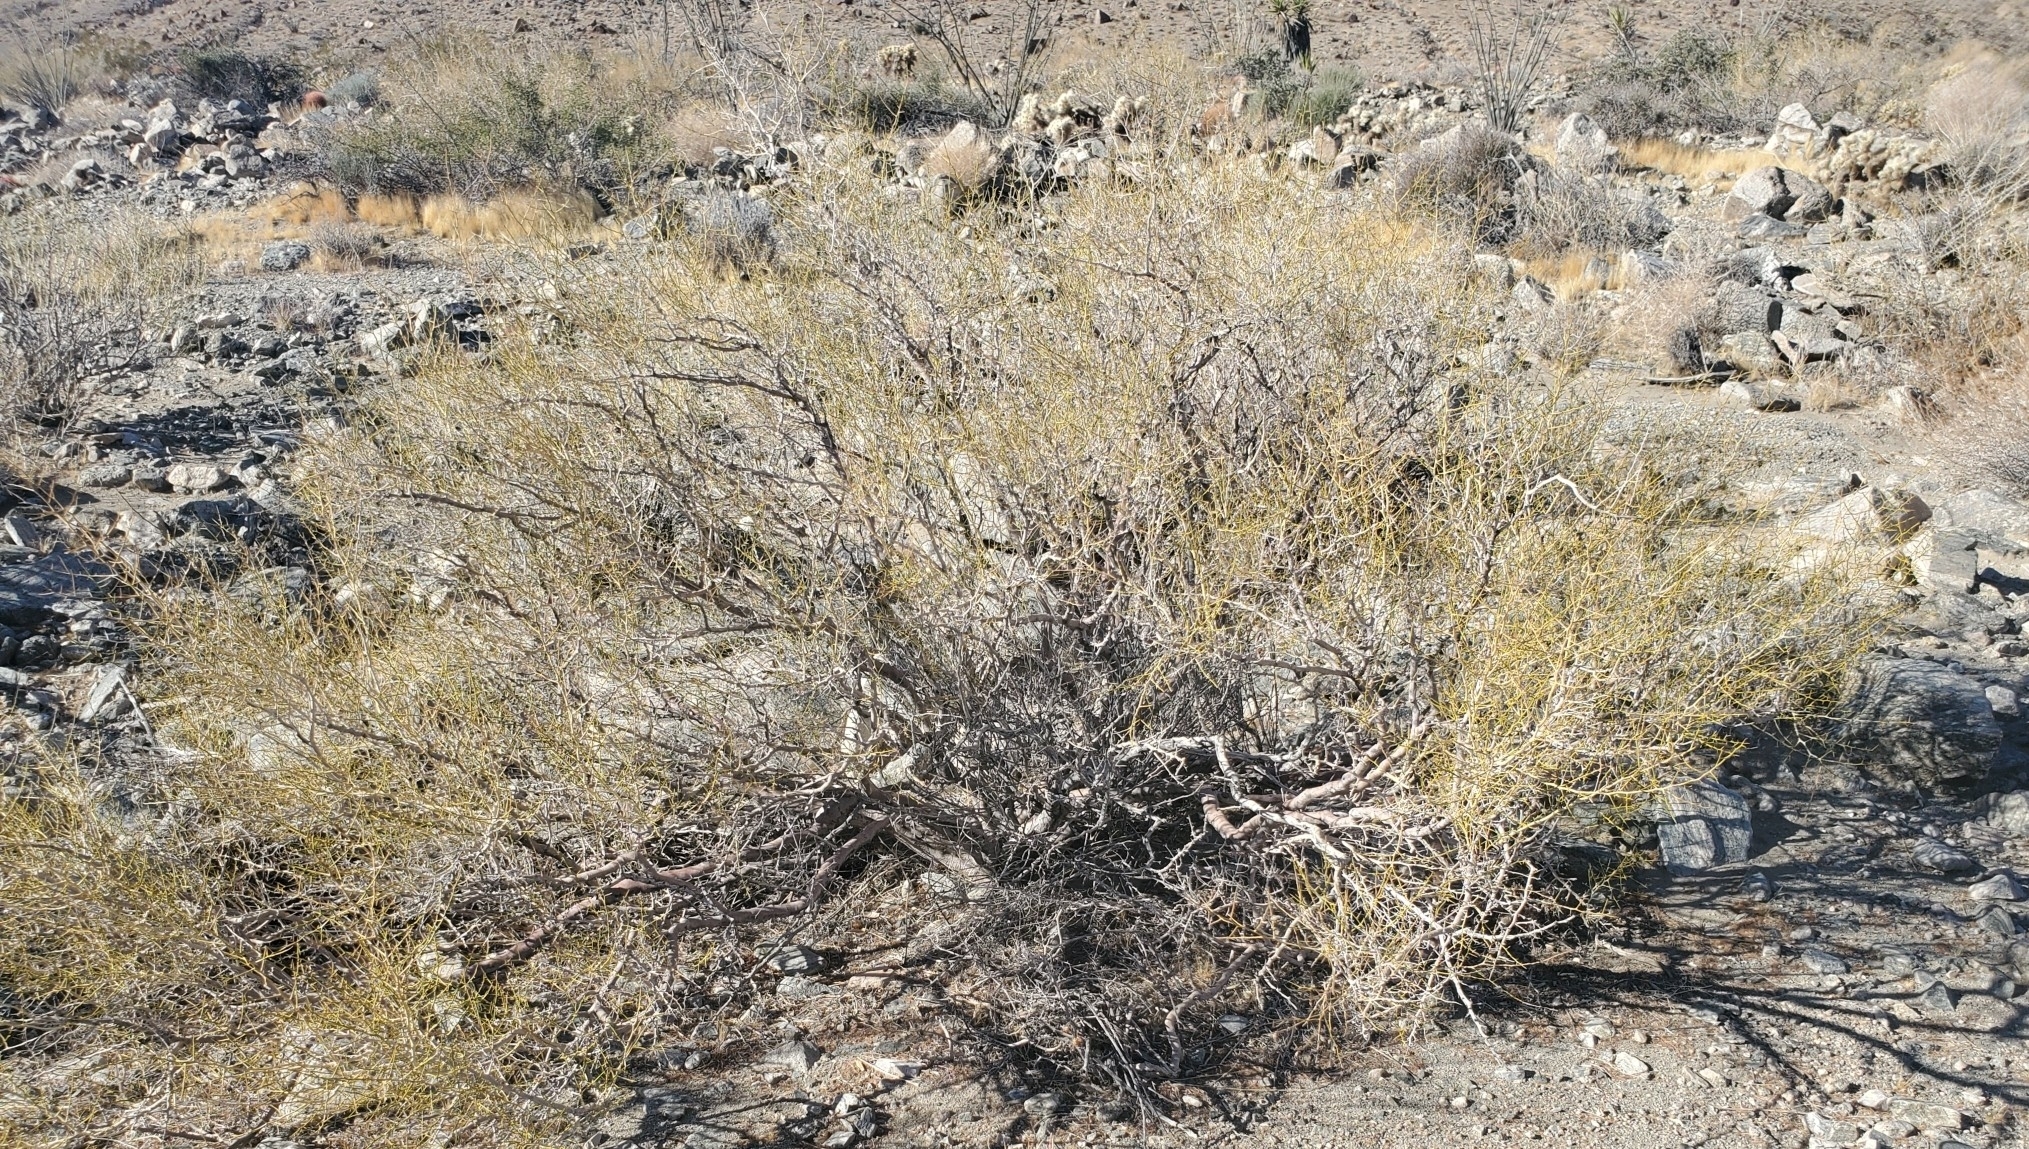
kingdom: Plantae
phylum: Tracheophyta
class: Magnoliopsida
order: Fabales
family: Fabaceae
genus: Psorothamnus
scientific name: Psorothamnus schottii
